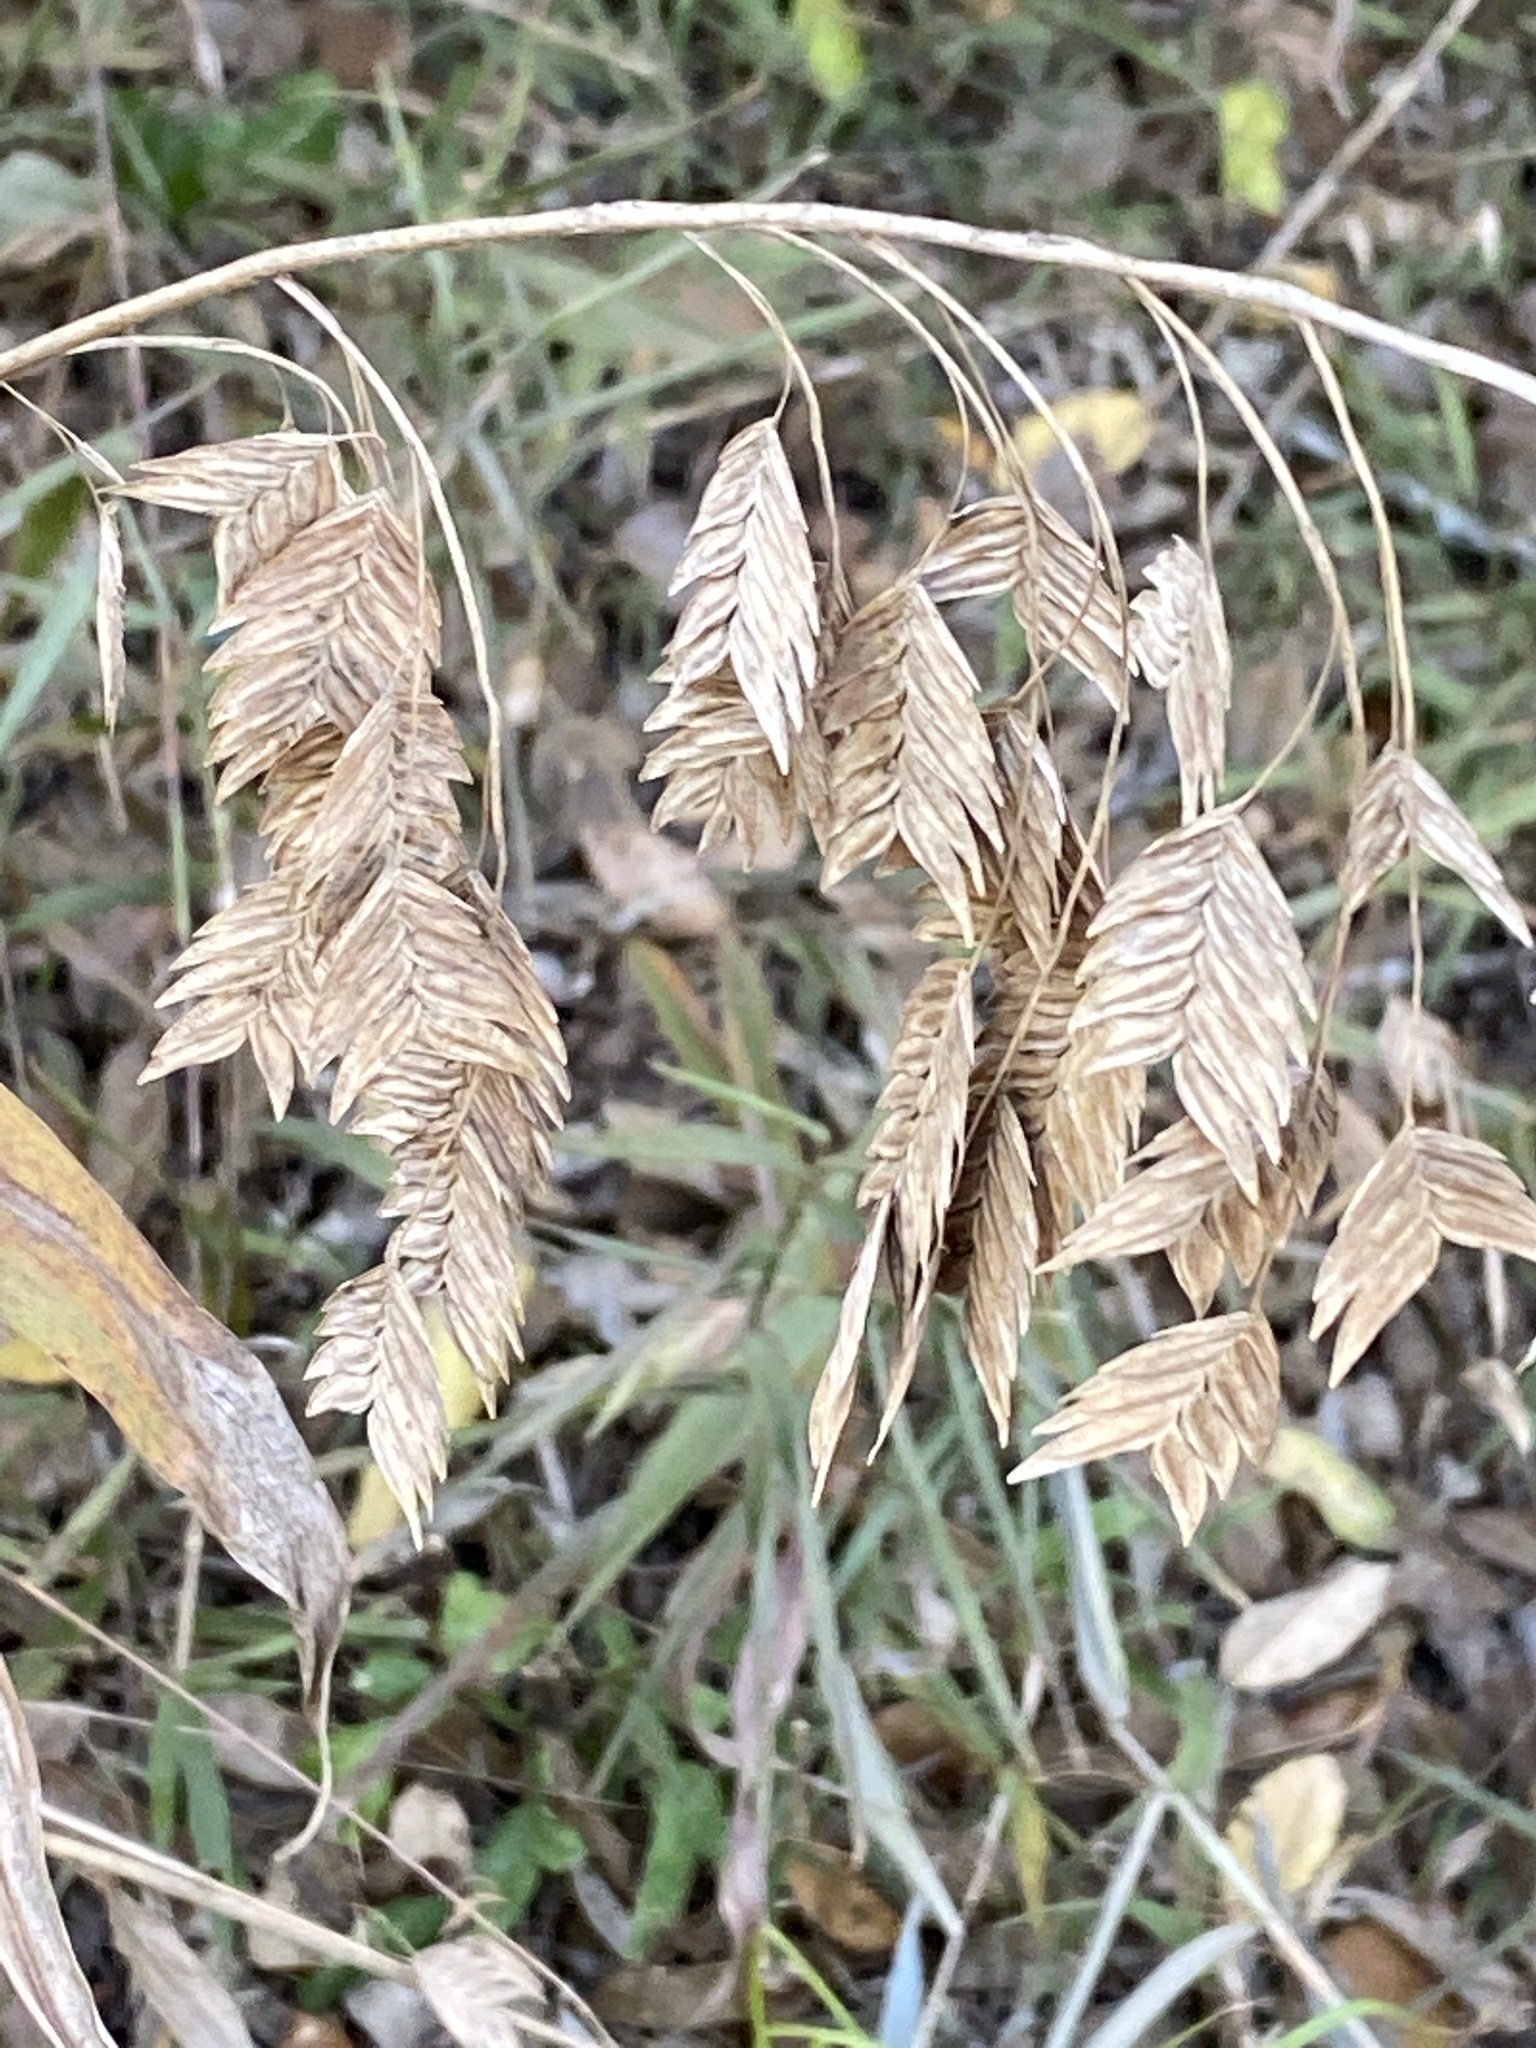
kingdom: Plantae
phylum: Tracheophyta
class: Liliopsida
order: Poales
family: Poaceae
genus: Chasmanthium
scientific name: Chasmanthium latifolium
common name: Broad-leaved chasmanthium
